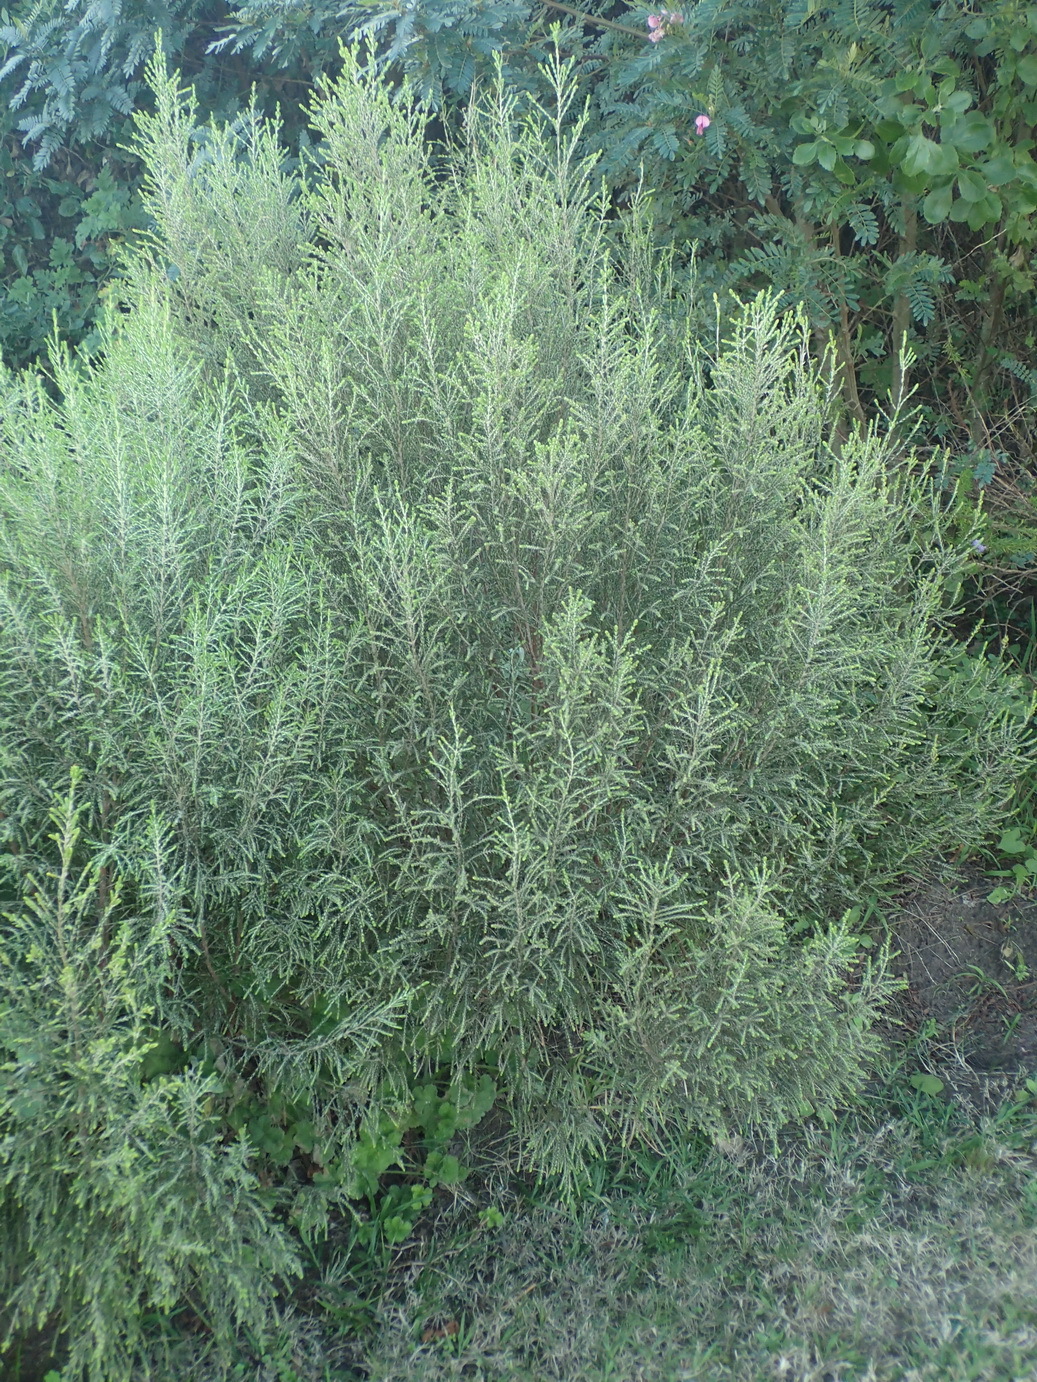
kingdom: Plantae
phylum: Tracheophyta
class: Magnoliopsida
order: Malvales
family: Thymelaeaceae
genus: Passerina
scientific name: Passerina rigida
